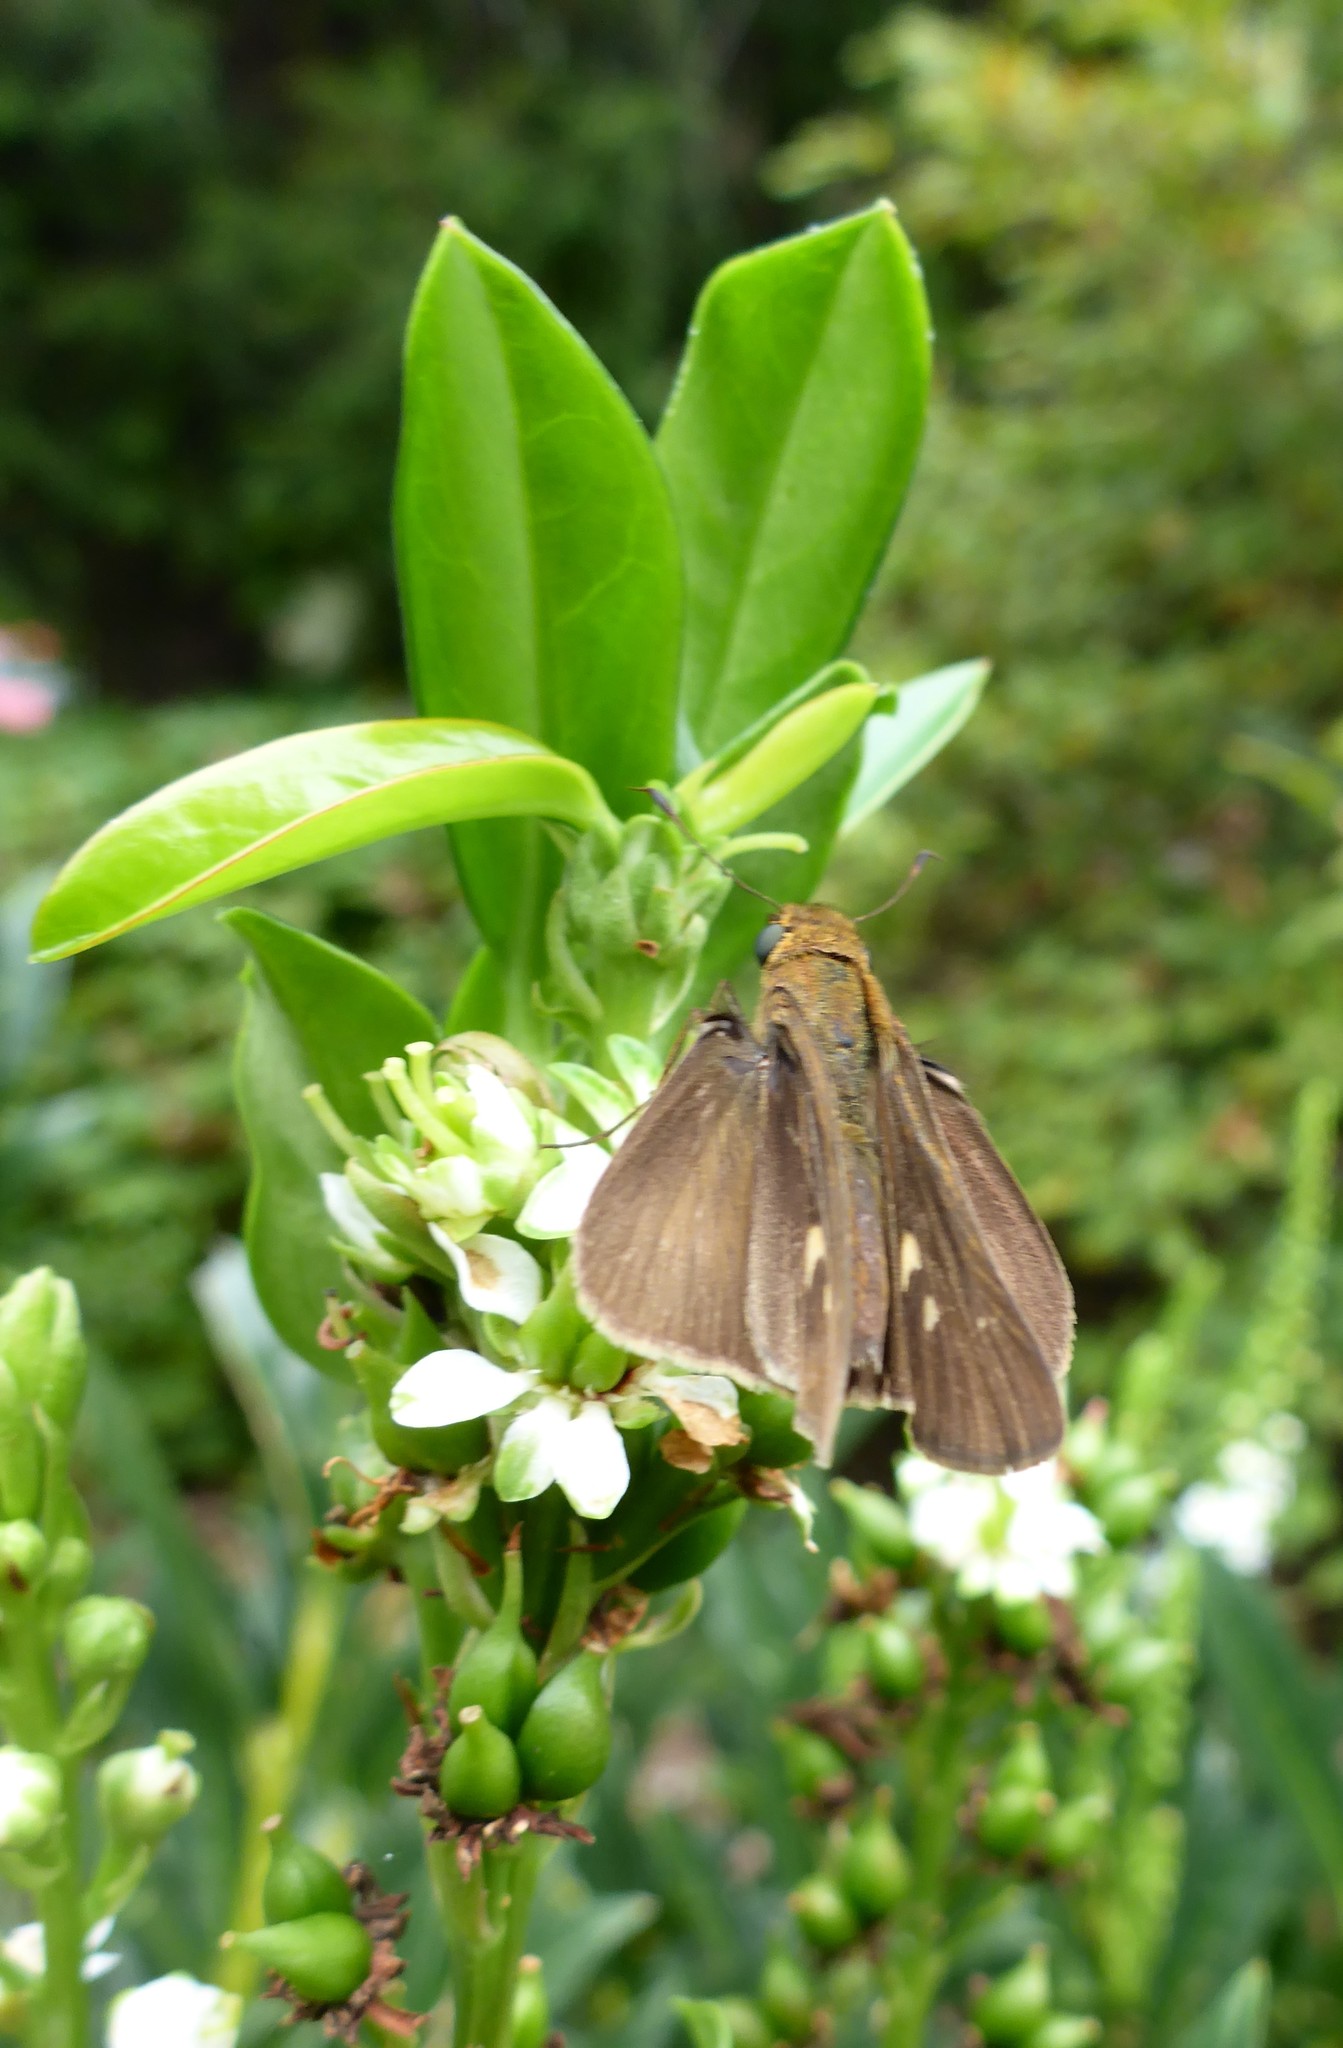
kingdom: Animalia
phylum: Arthropoda
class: Insecta
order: Lepidoptera
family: Hesperiidae
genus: Panoquina
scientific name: Panoquina ocola
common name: Ocola skipper
